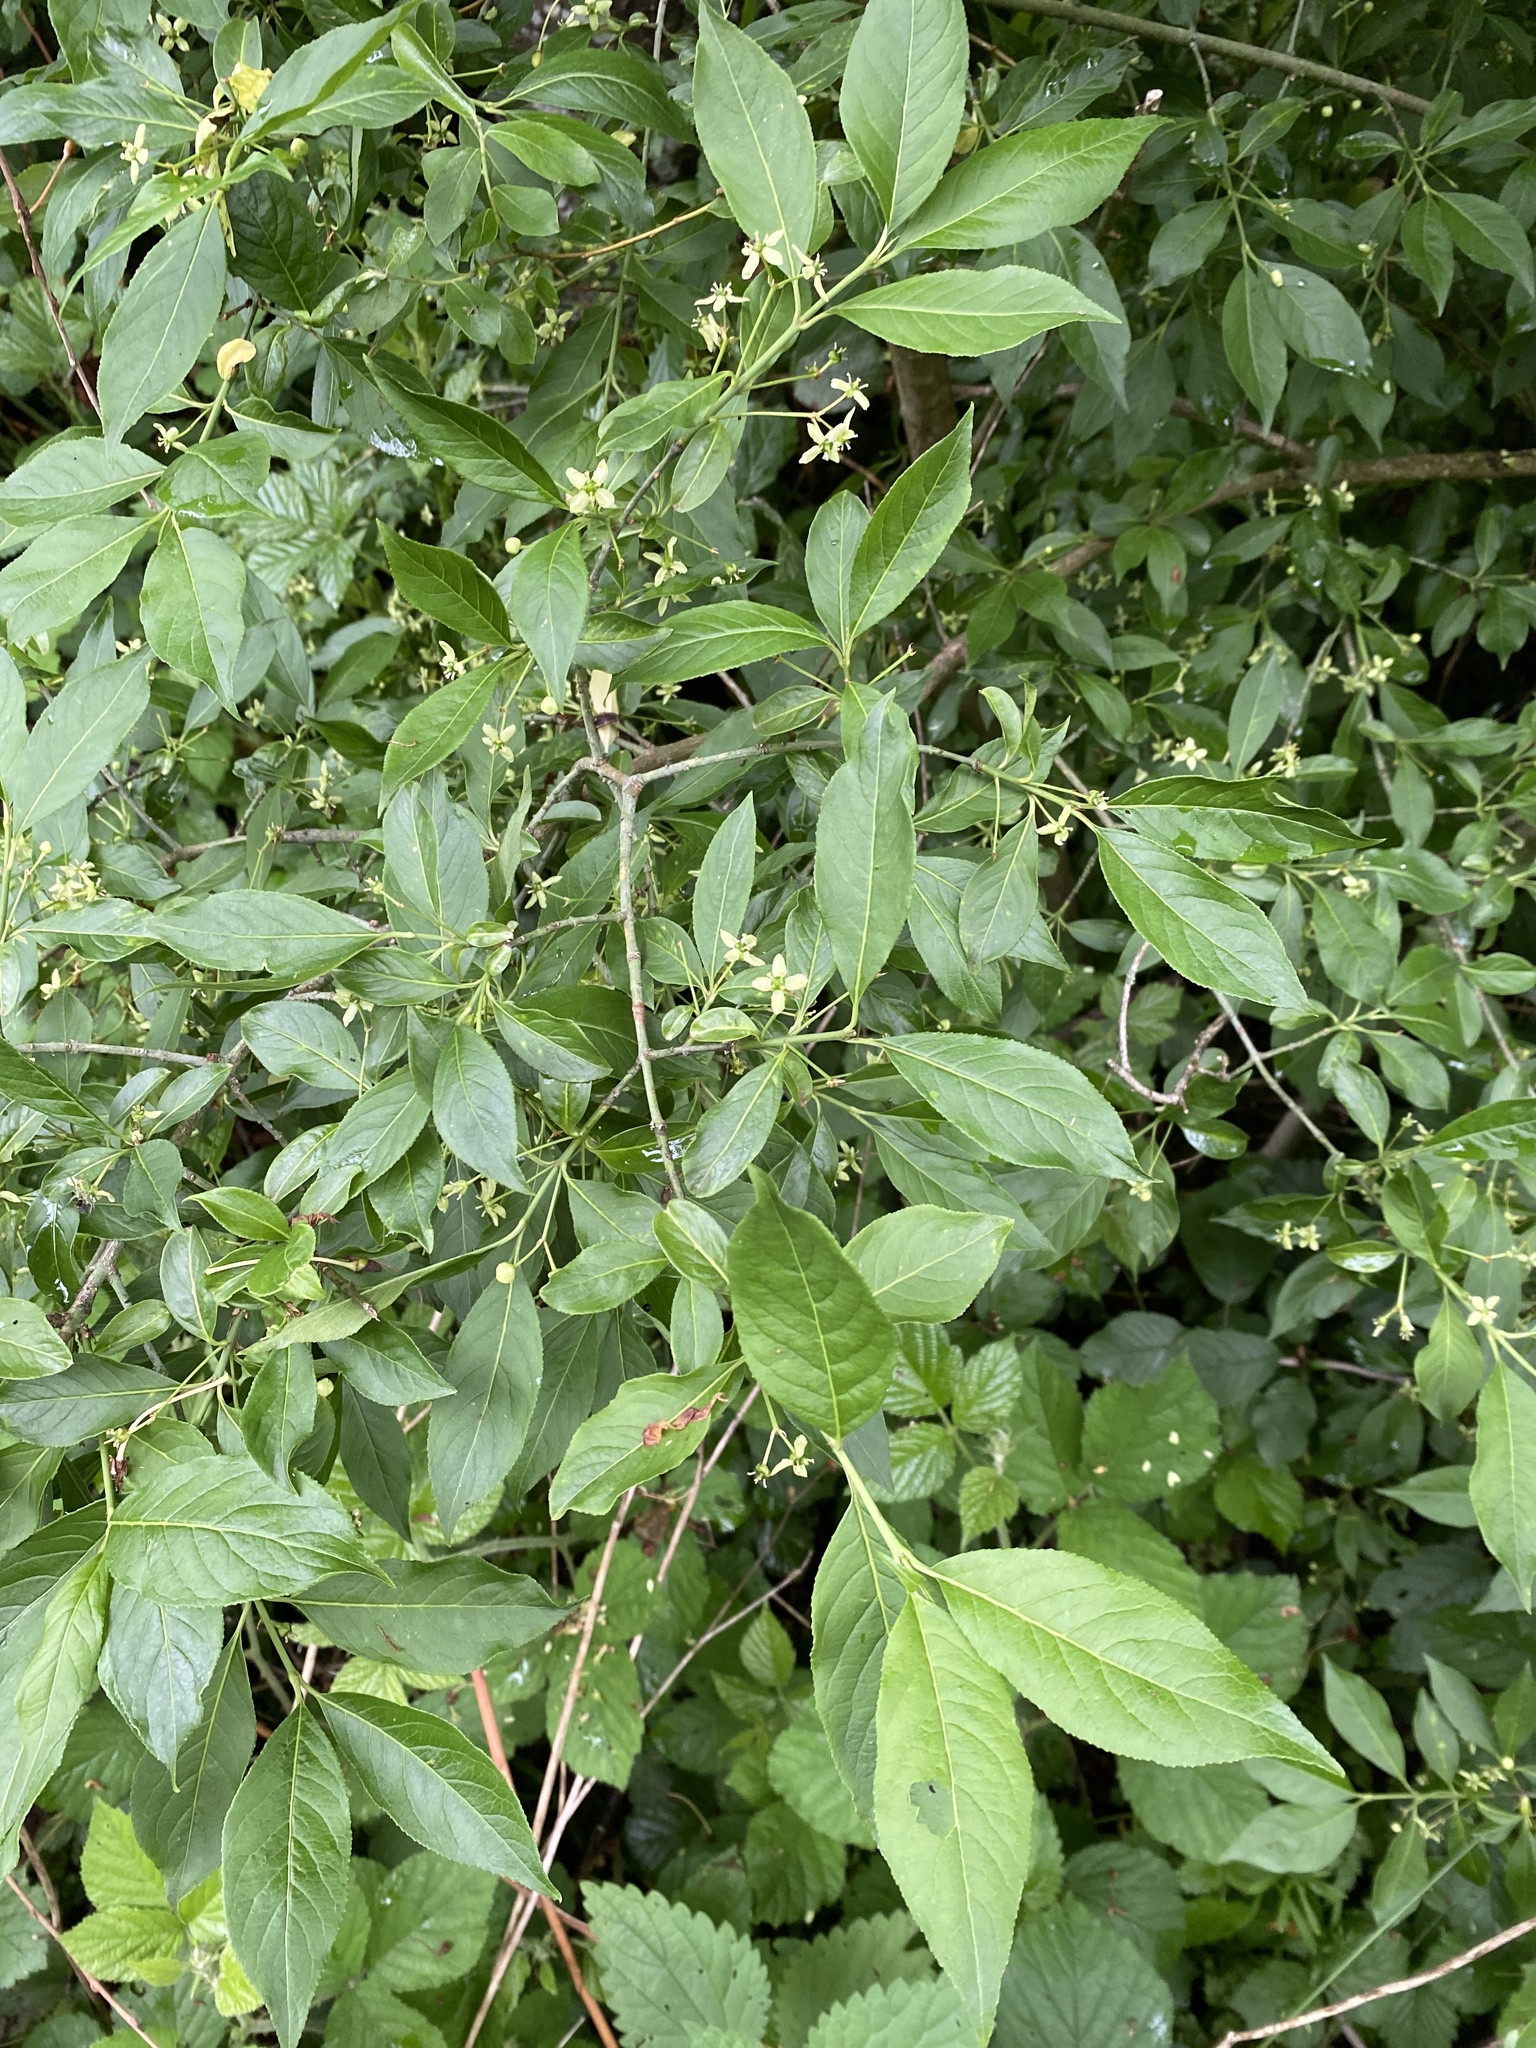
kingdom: Plantae
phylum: Tracheophyta
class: Magnoliopsida
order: Celastrales
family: Celastraceae
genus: Euonymus
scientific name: Euonymus europaeus
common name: Spindle
